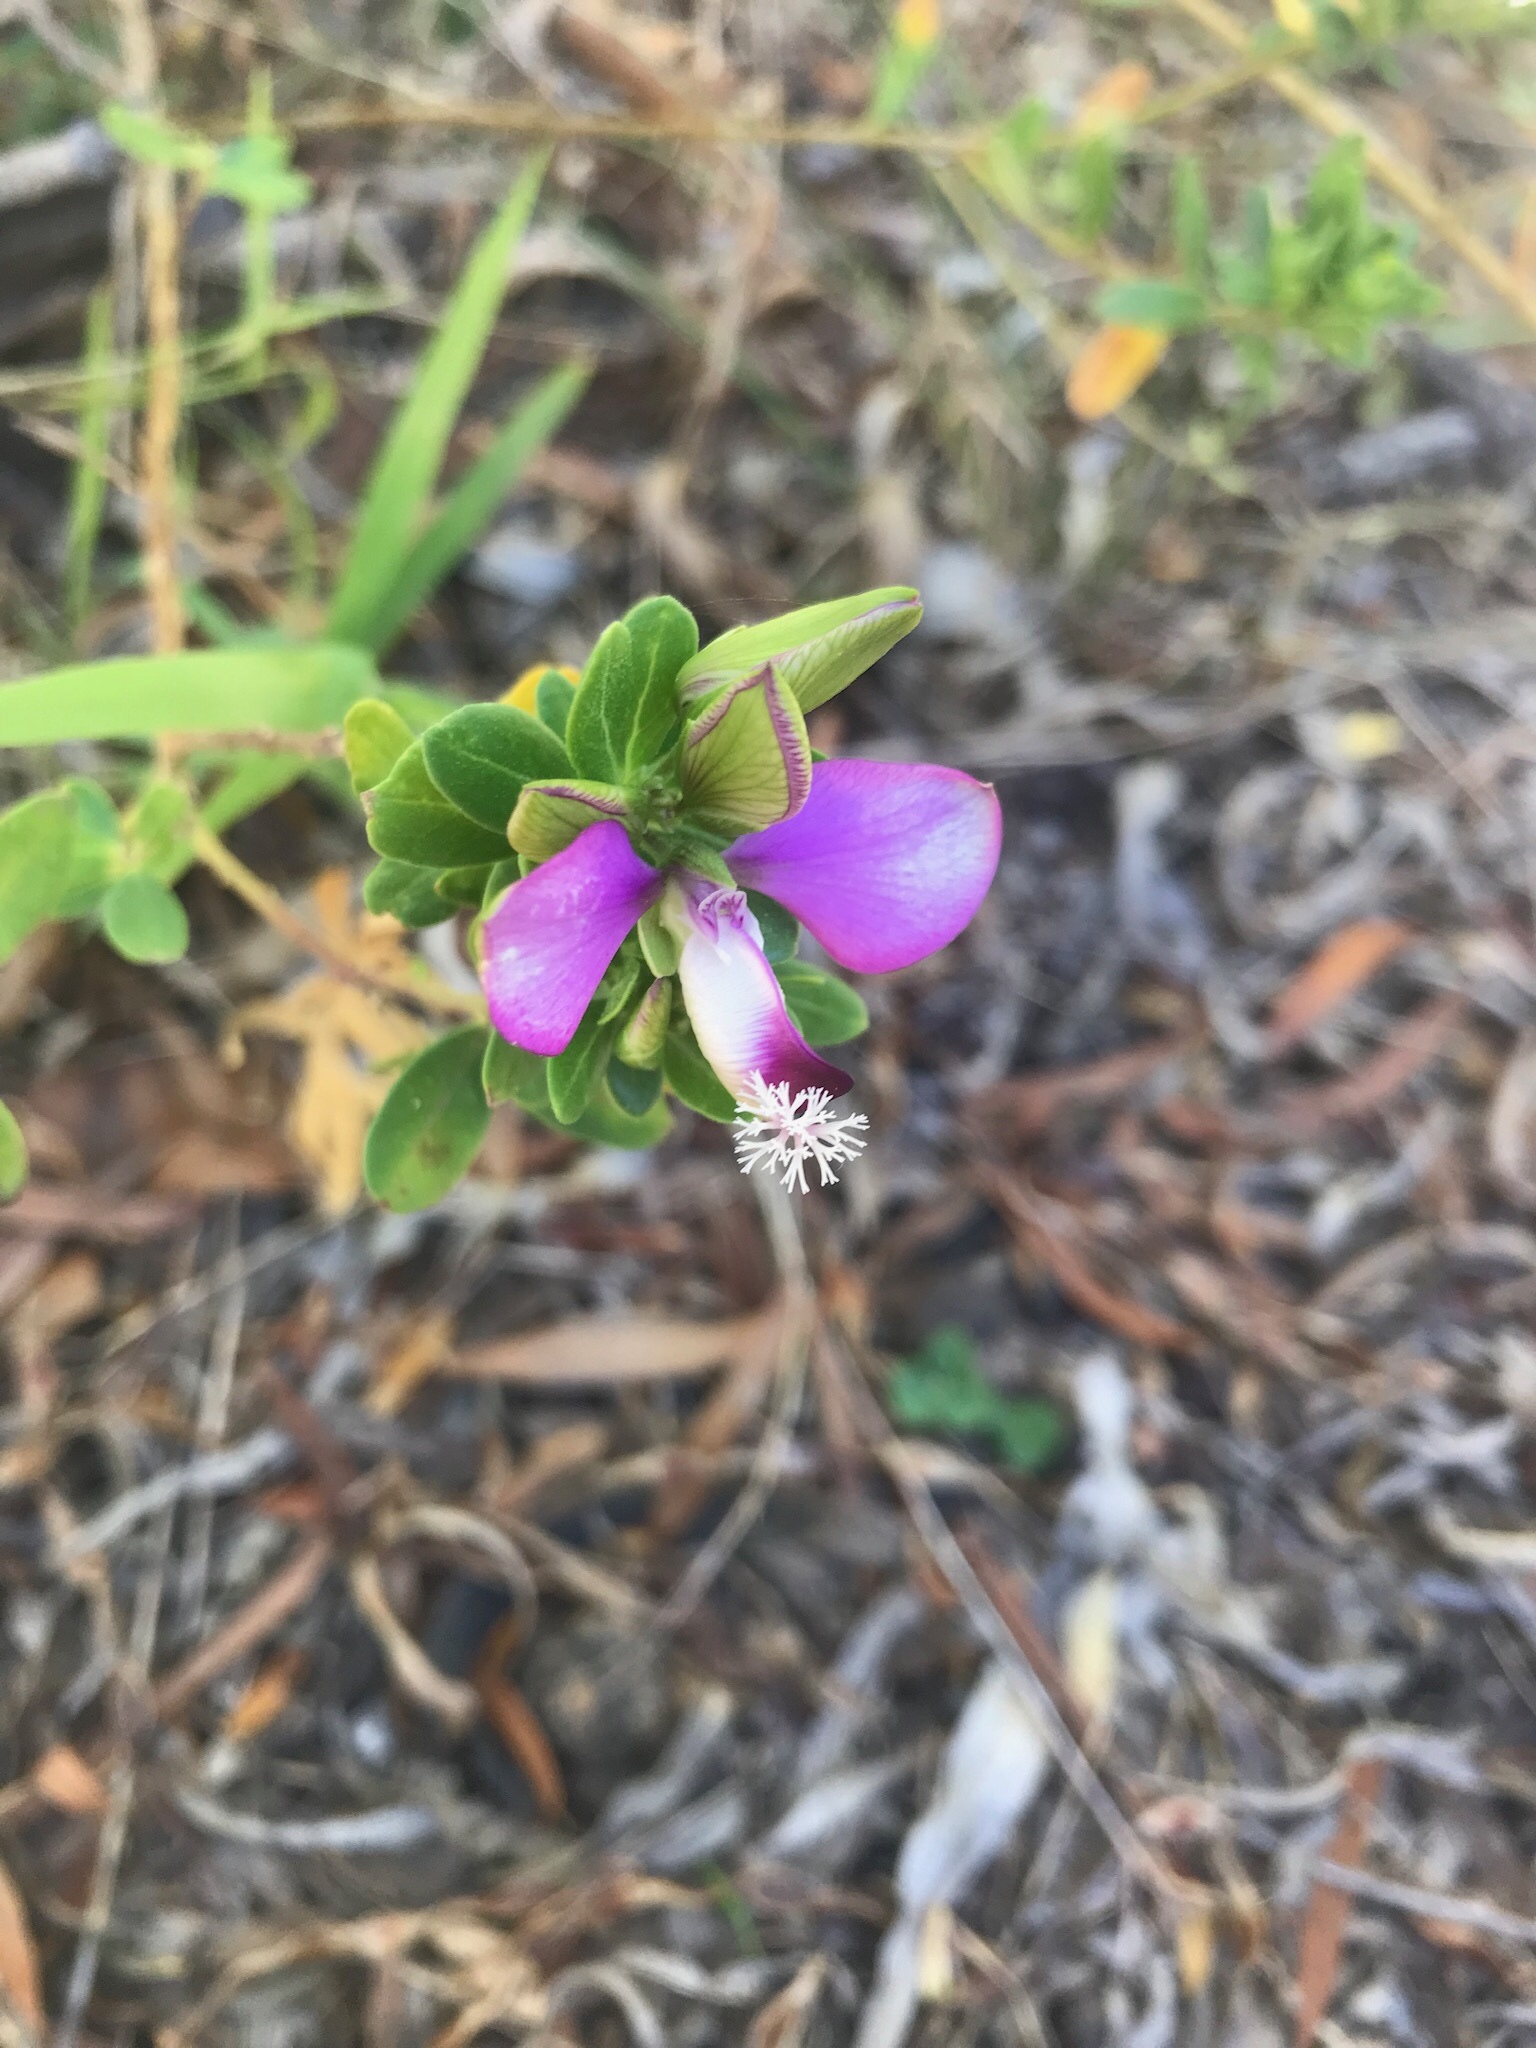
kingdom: Plantae
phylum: Tracheophyta
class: Magnoliopsida
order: Fabales
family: Polygalaceae
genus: Polygala
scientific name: Polygala myrtifolia
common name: Myrtle-leaf milkwort
